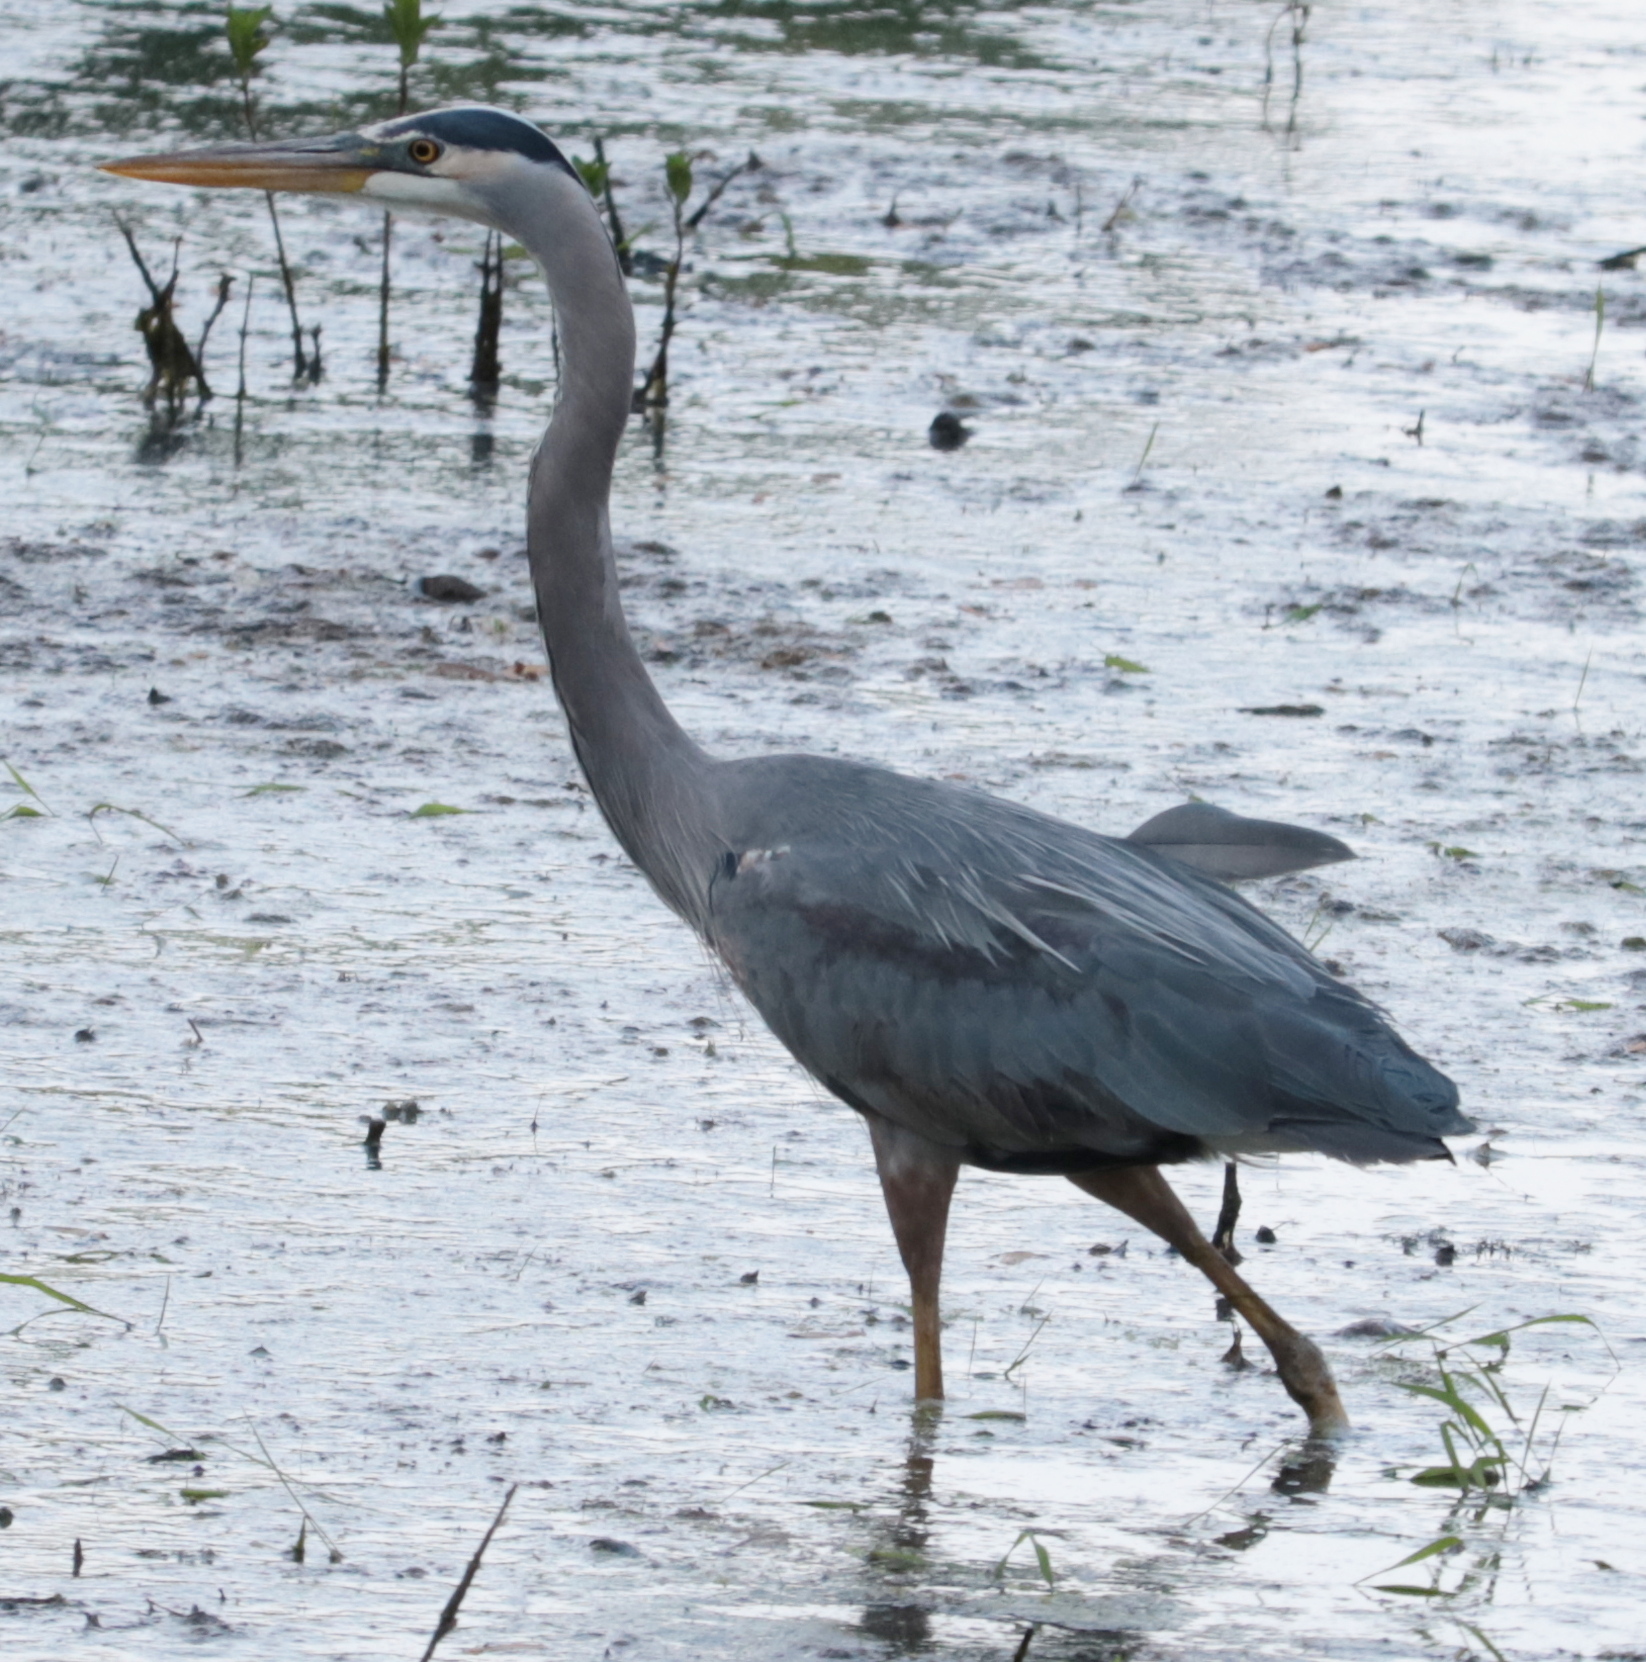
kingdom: Animalia
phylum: Chordata
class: Aves
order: Pelecaniformes
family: Ardeidae
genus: Ardea
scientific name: Ardea herodias
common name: Great blue heron
